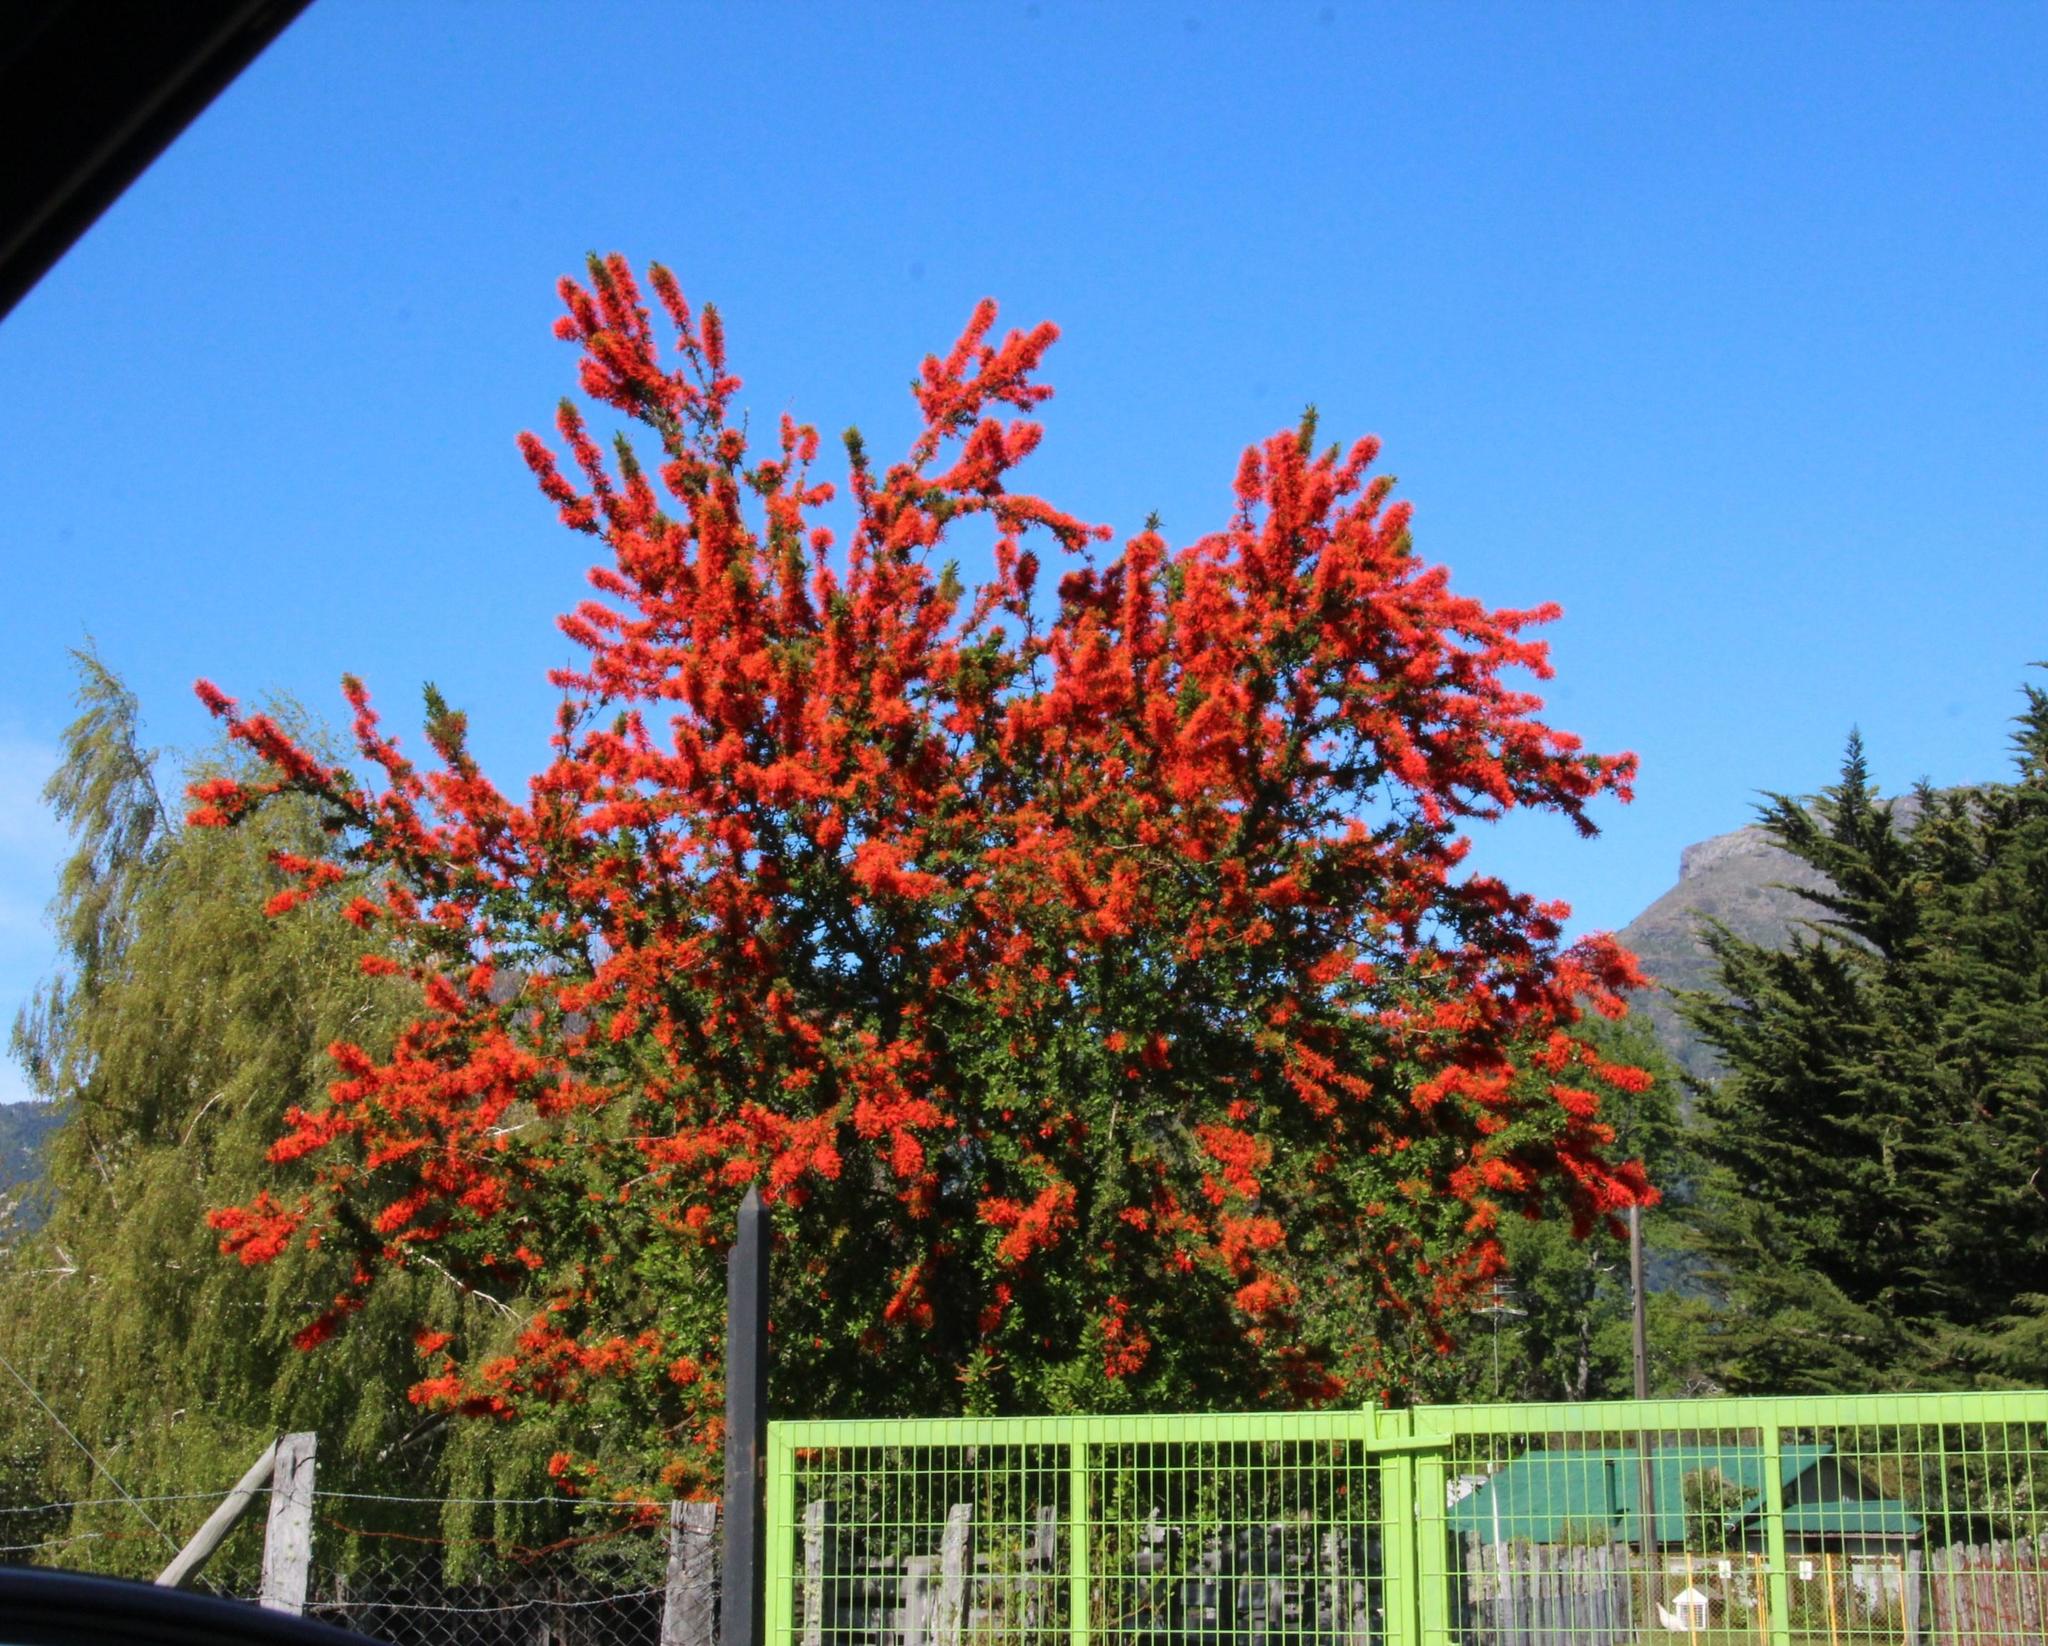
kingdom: Plantae
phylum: Tracheophyta
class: Magnoliopsida
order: Proteales
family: Proteaceae
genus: Embothrium
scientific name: Embothrium coccineum
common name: Chilean firebush
